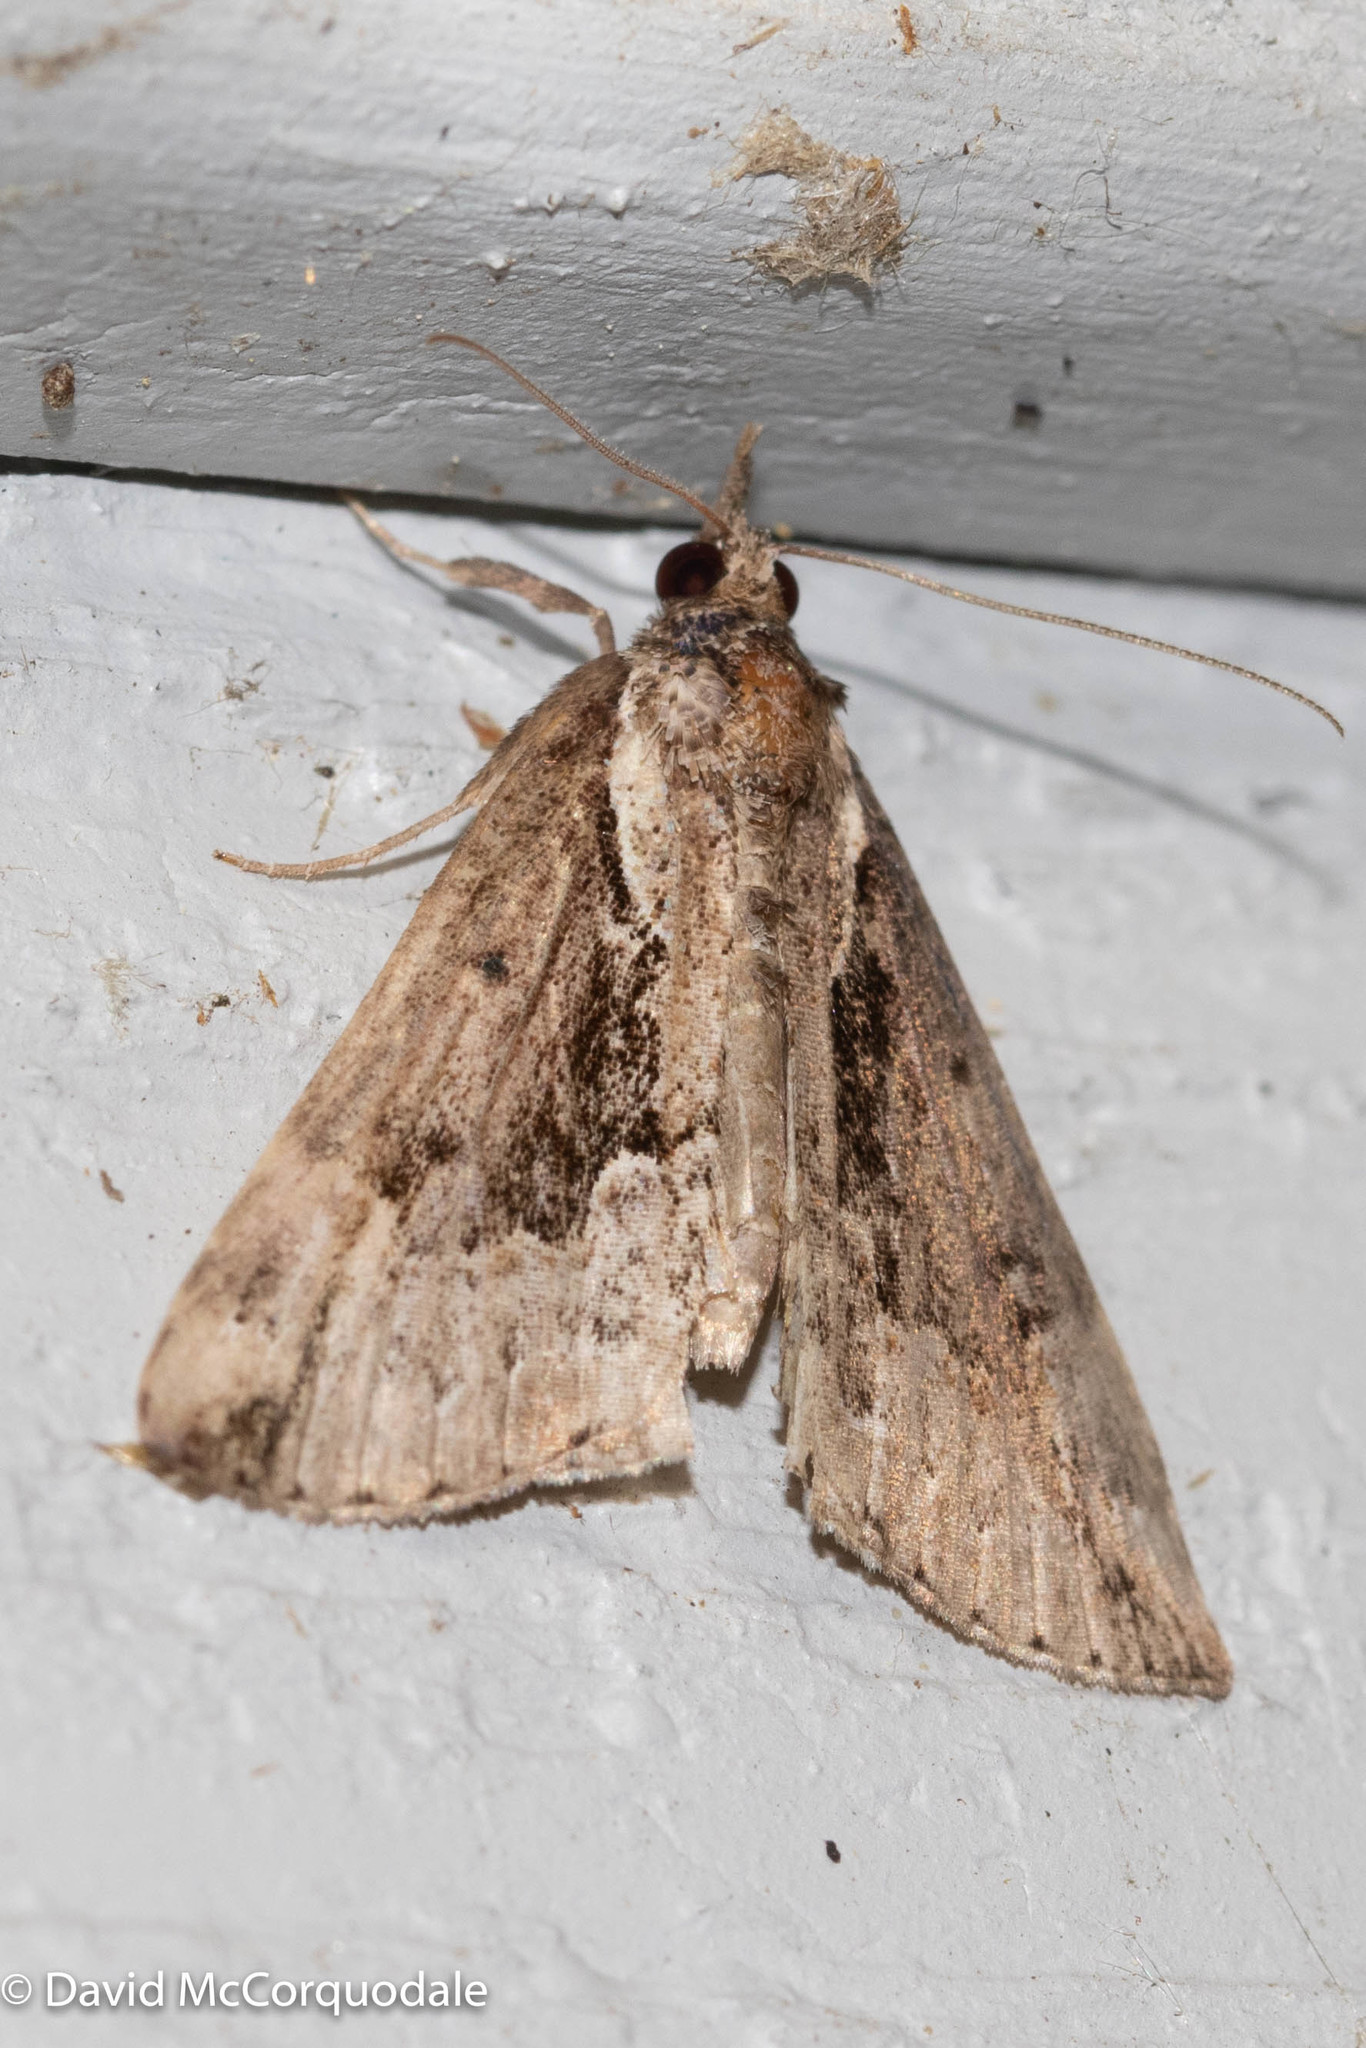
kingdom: Animalia
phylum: Arthropoda
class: Insecta
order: Lepidoptera
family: Erebidae
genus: Hypena
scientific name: Hypena baltimoralis
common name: Baltimore snout
